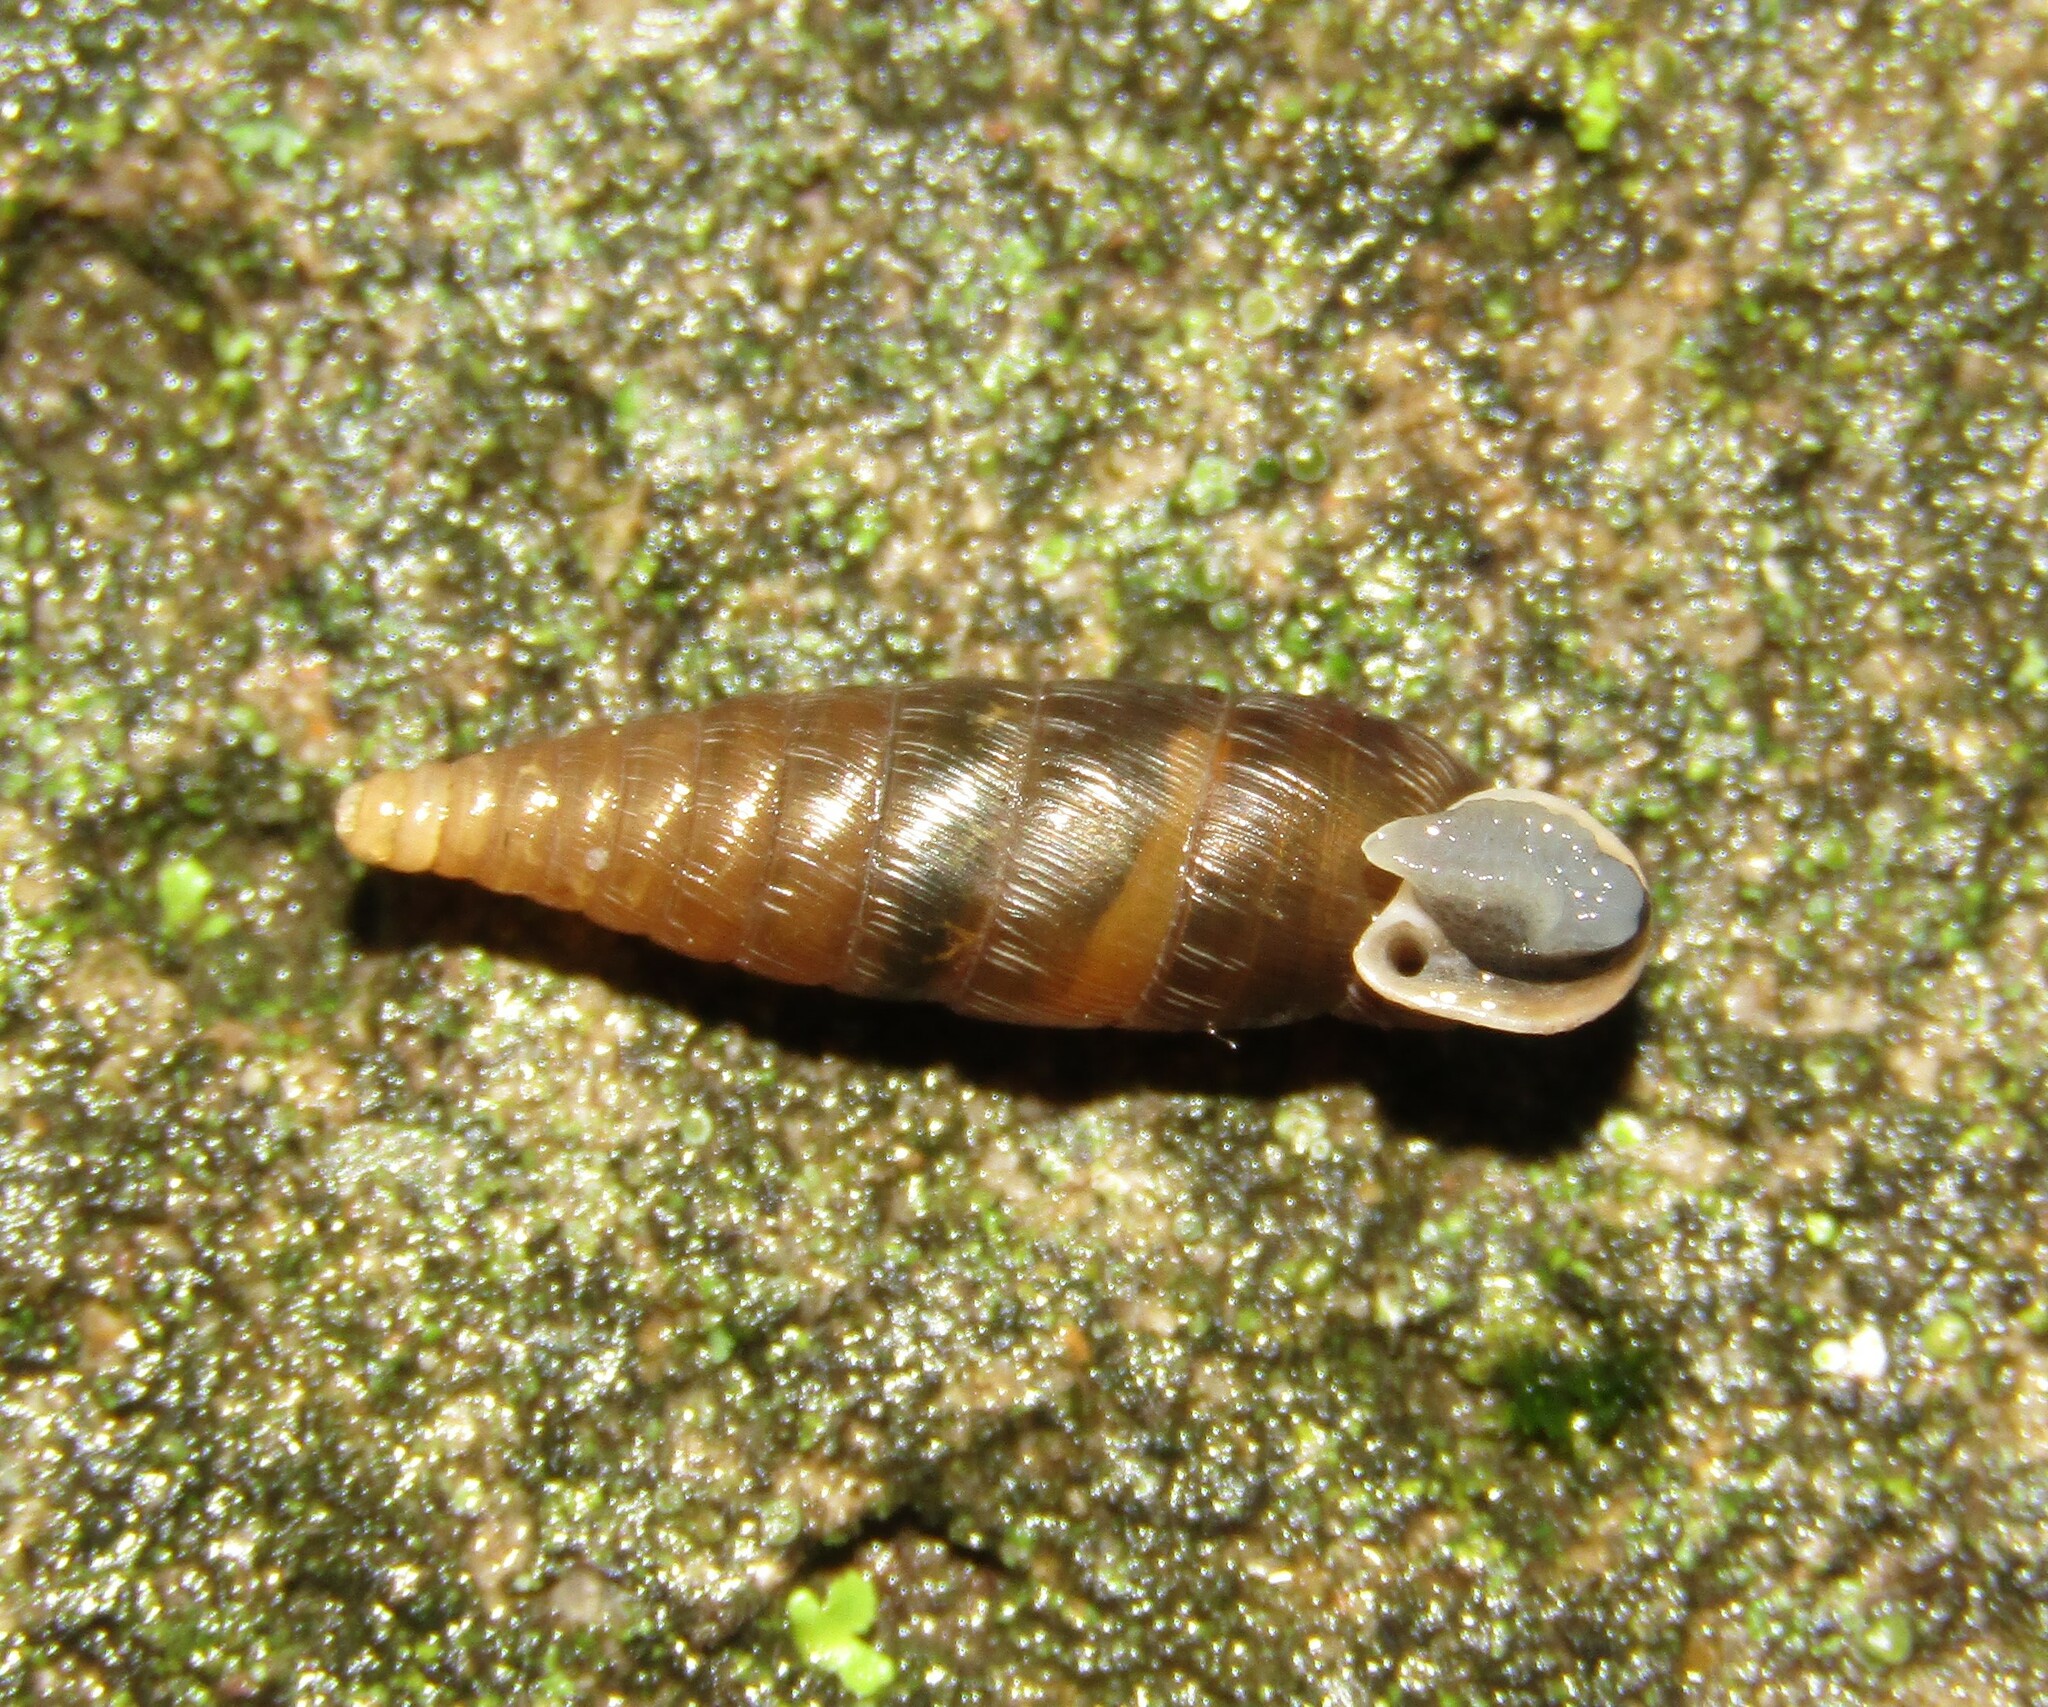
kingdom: Animalia
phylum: Mollusca
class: Gastropoda
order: Stylommatophora
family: Clausiliidae
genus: Elia
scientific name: Elia novorossica
